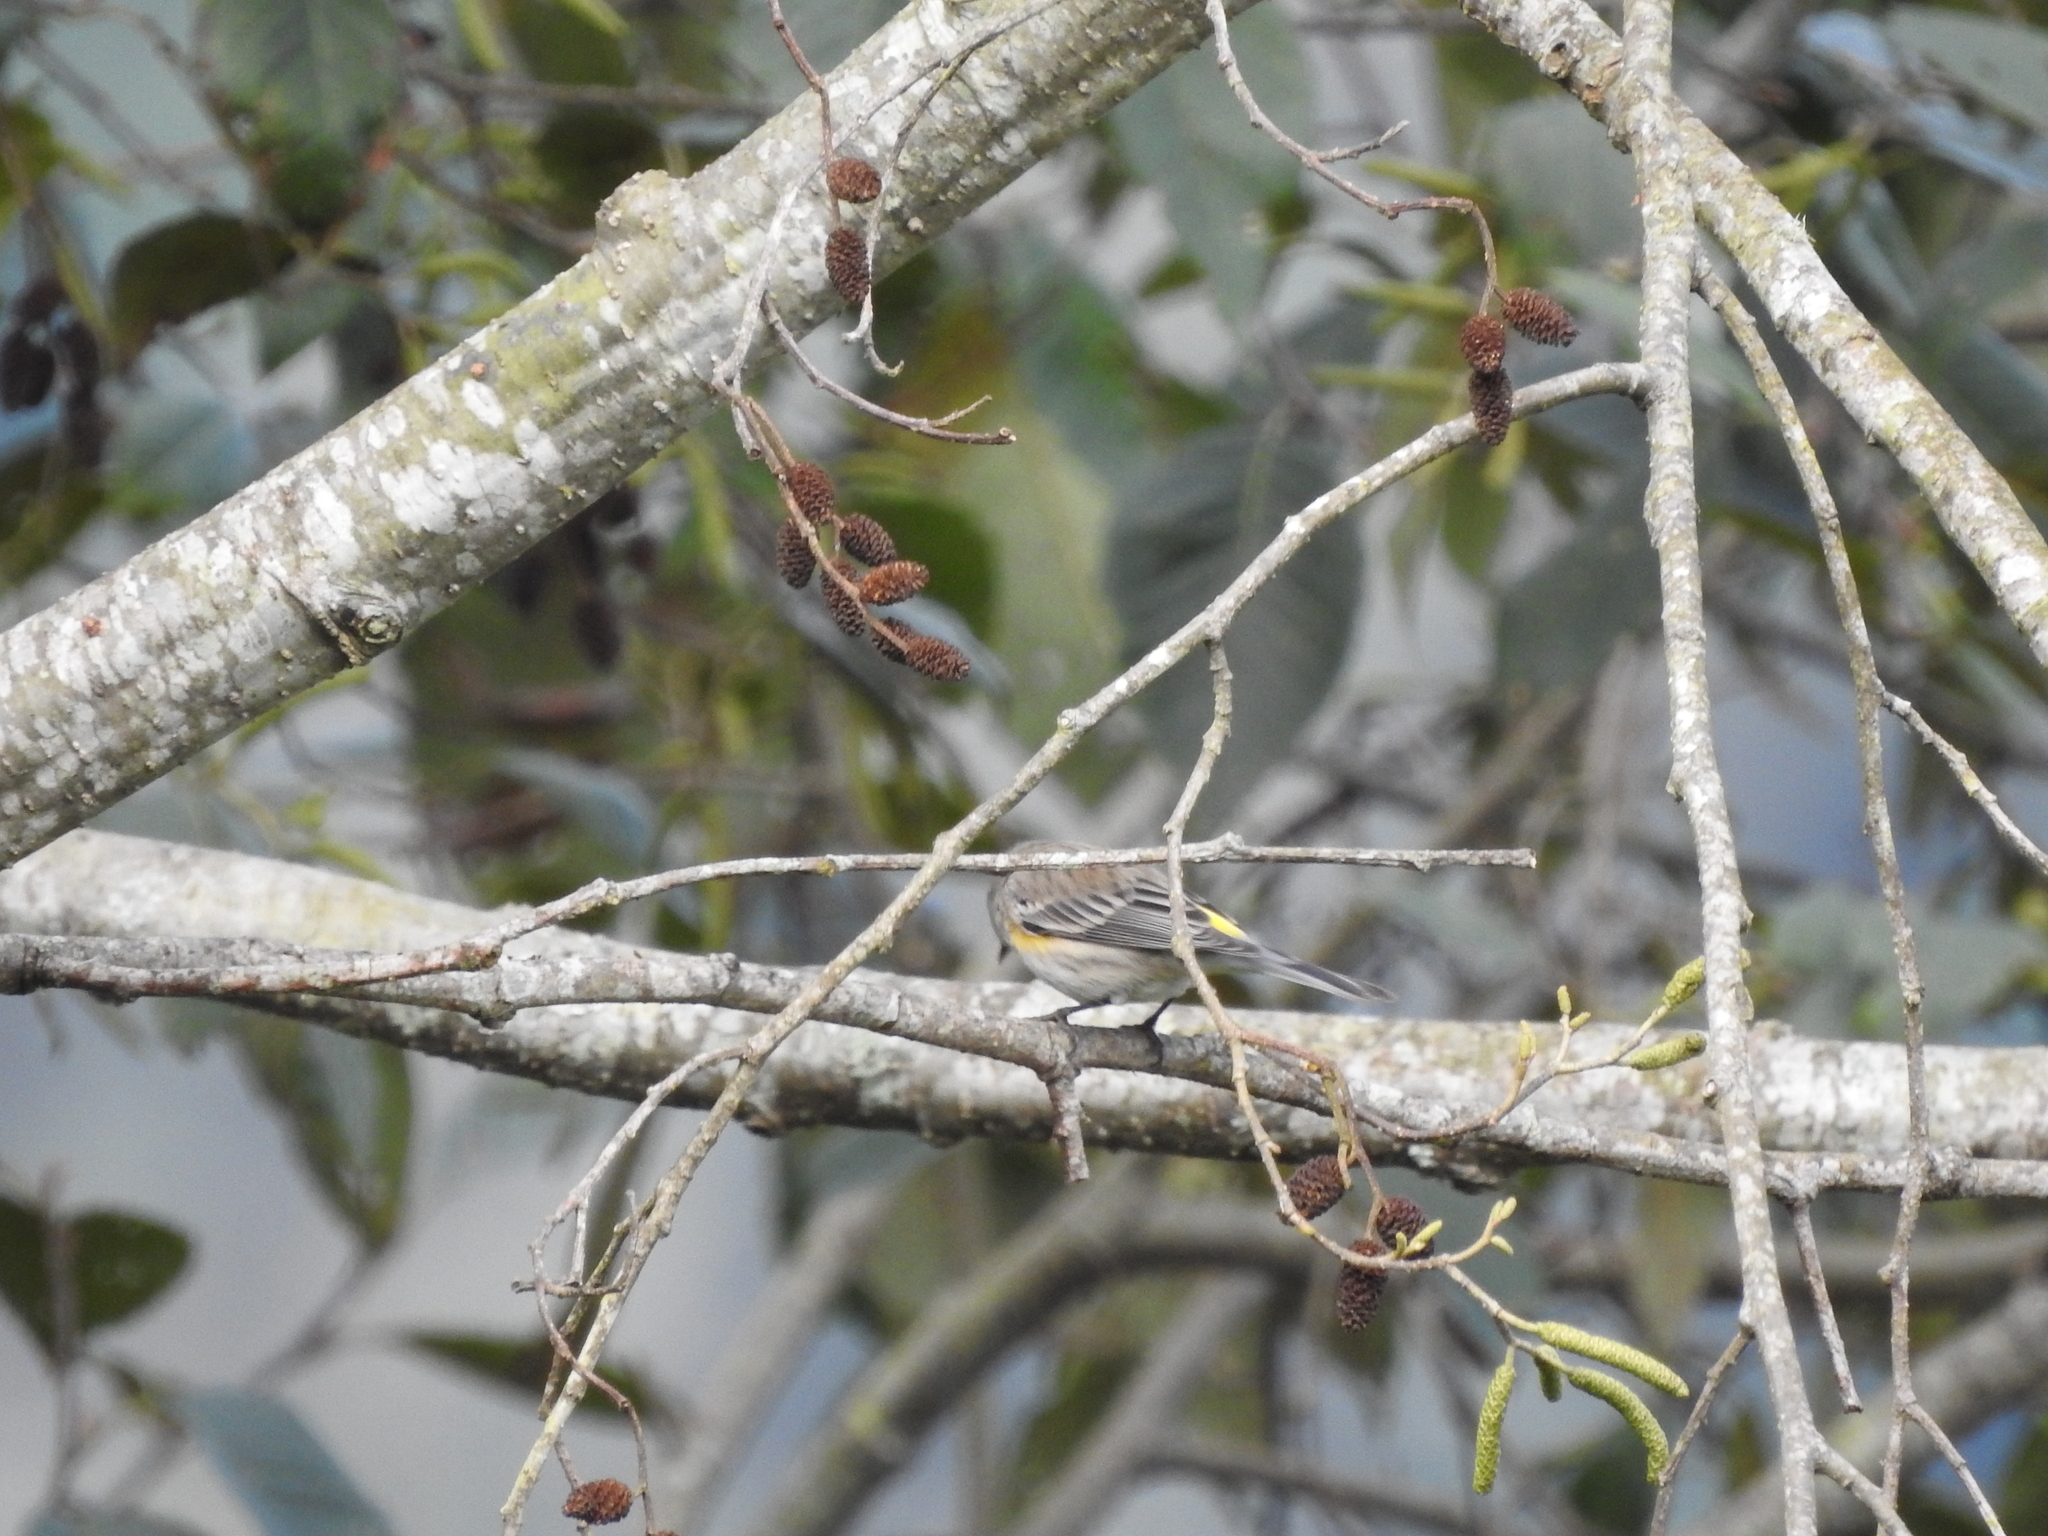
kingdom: Animalia
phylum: Chordata
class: Aves
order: Passeriformes
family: Parulidae
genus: Setophaga
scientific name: Setophaga coronata
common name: Myrtle warbler
